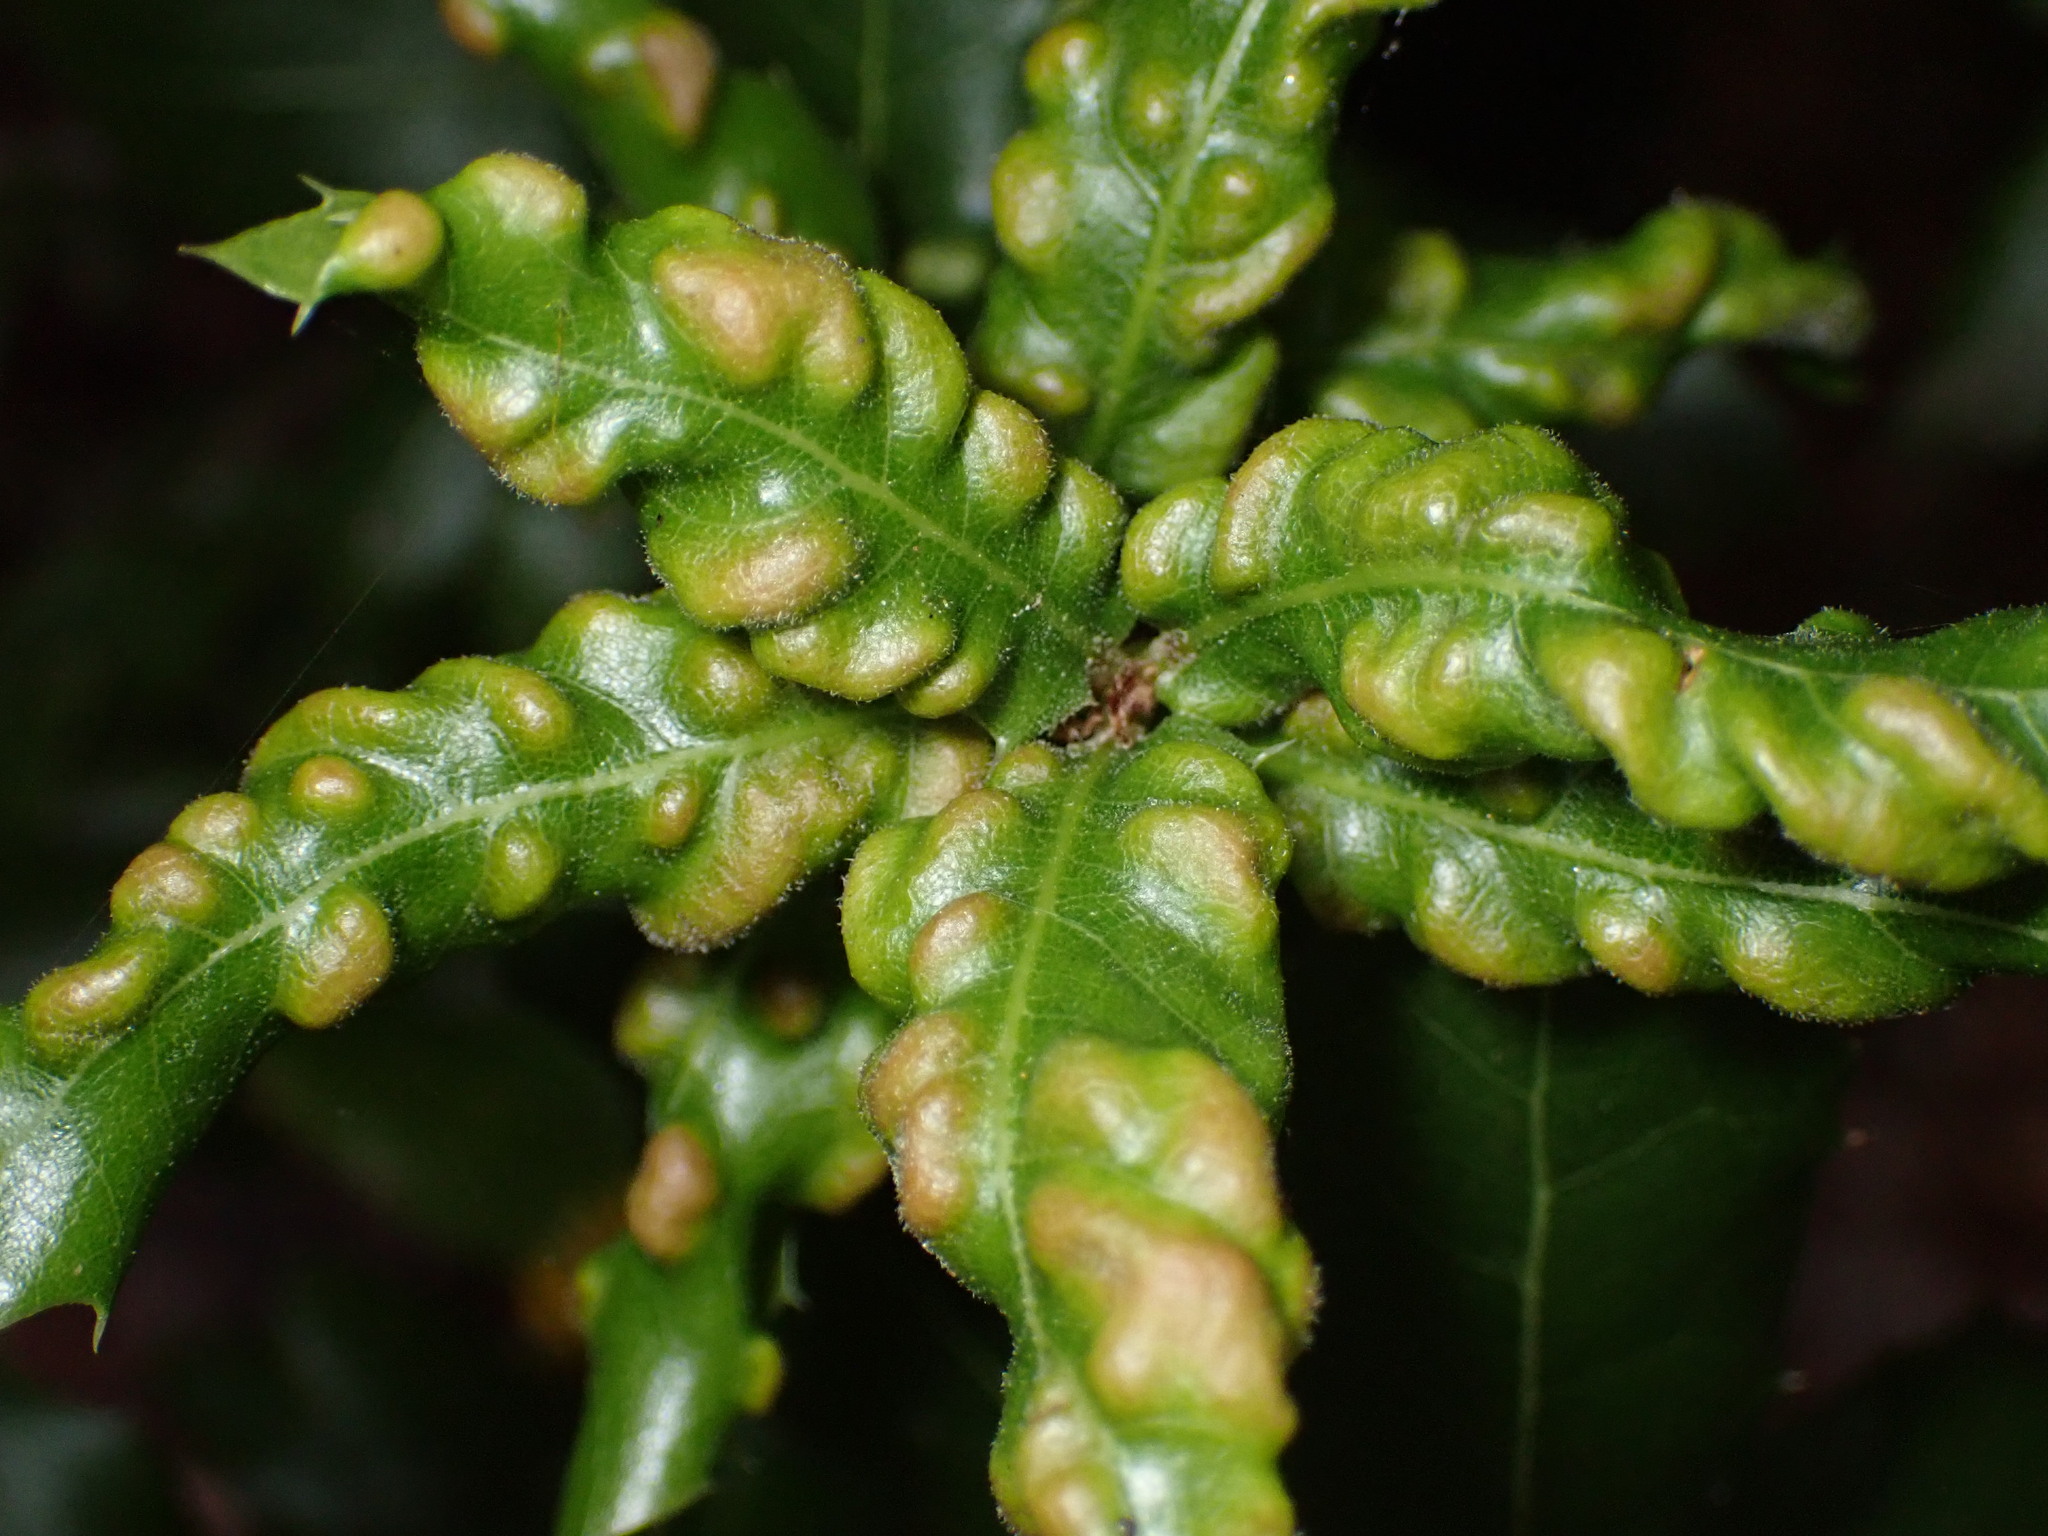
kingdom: Animalia
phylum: Arthropoda
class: Arachnida
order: Trombidiformes
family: Eriophyidae
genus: Aceria
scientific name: Aceria
